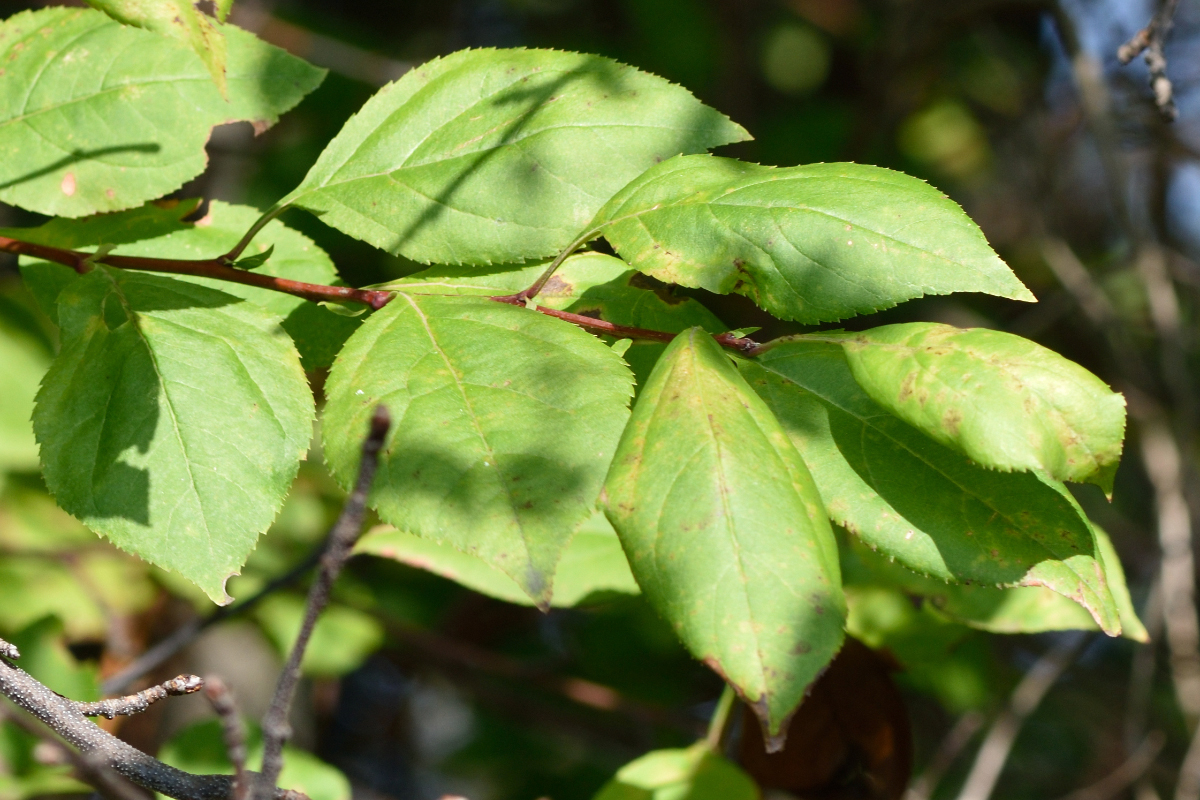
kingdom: Plantae
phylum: Tracheophyta
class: Magnoliopsida
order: Rosales
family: Rosaceae
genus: Malus
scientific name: Malus baccata
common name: Siberian crab
